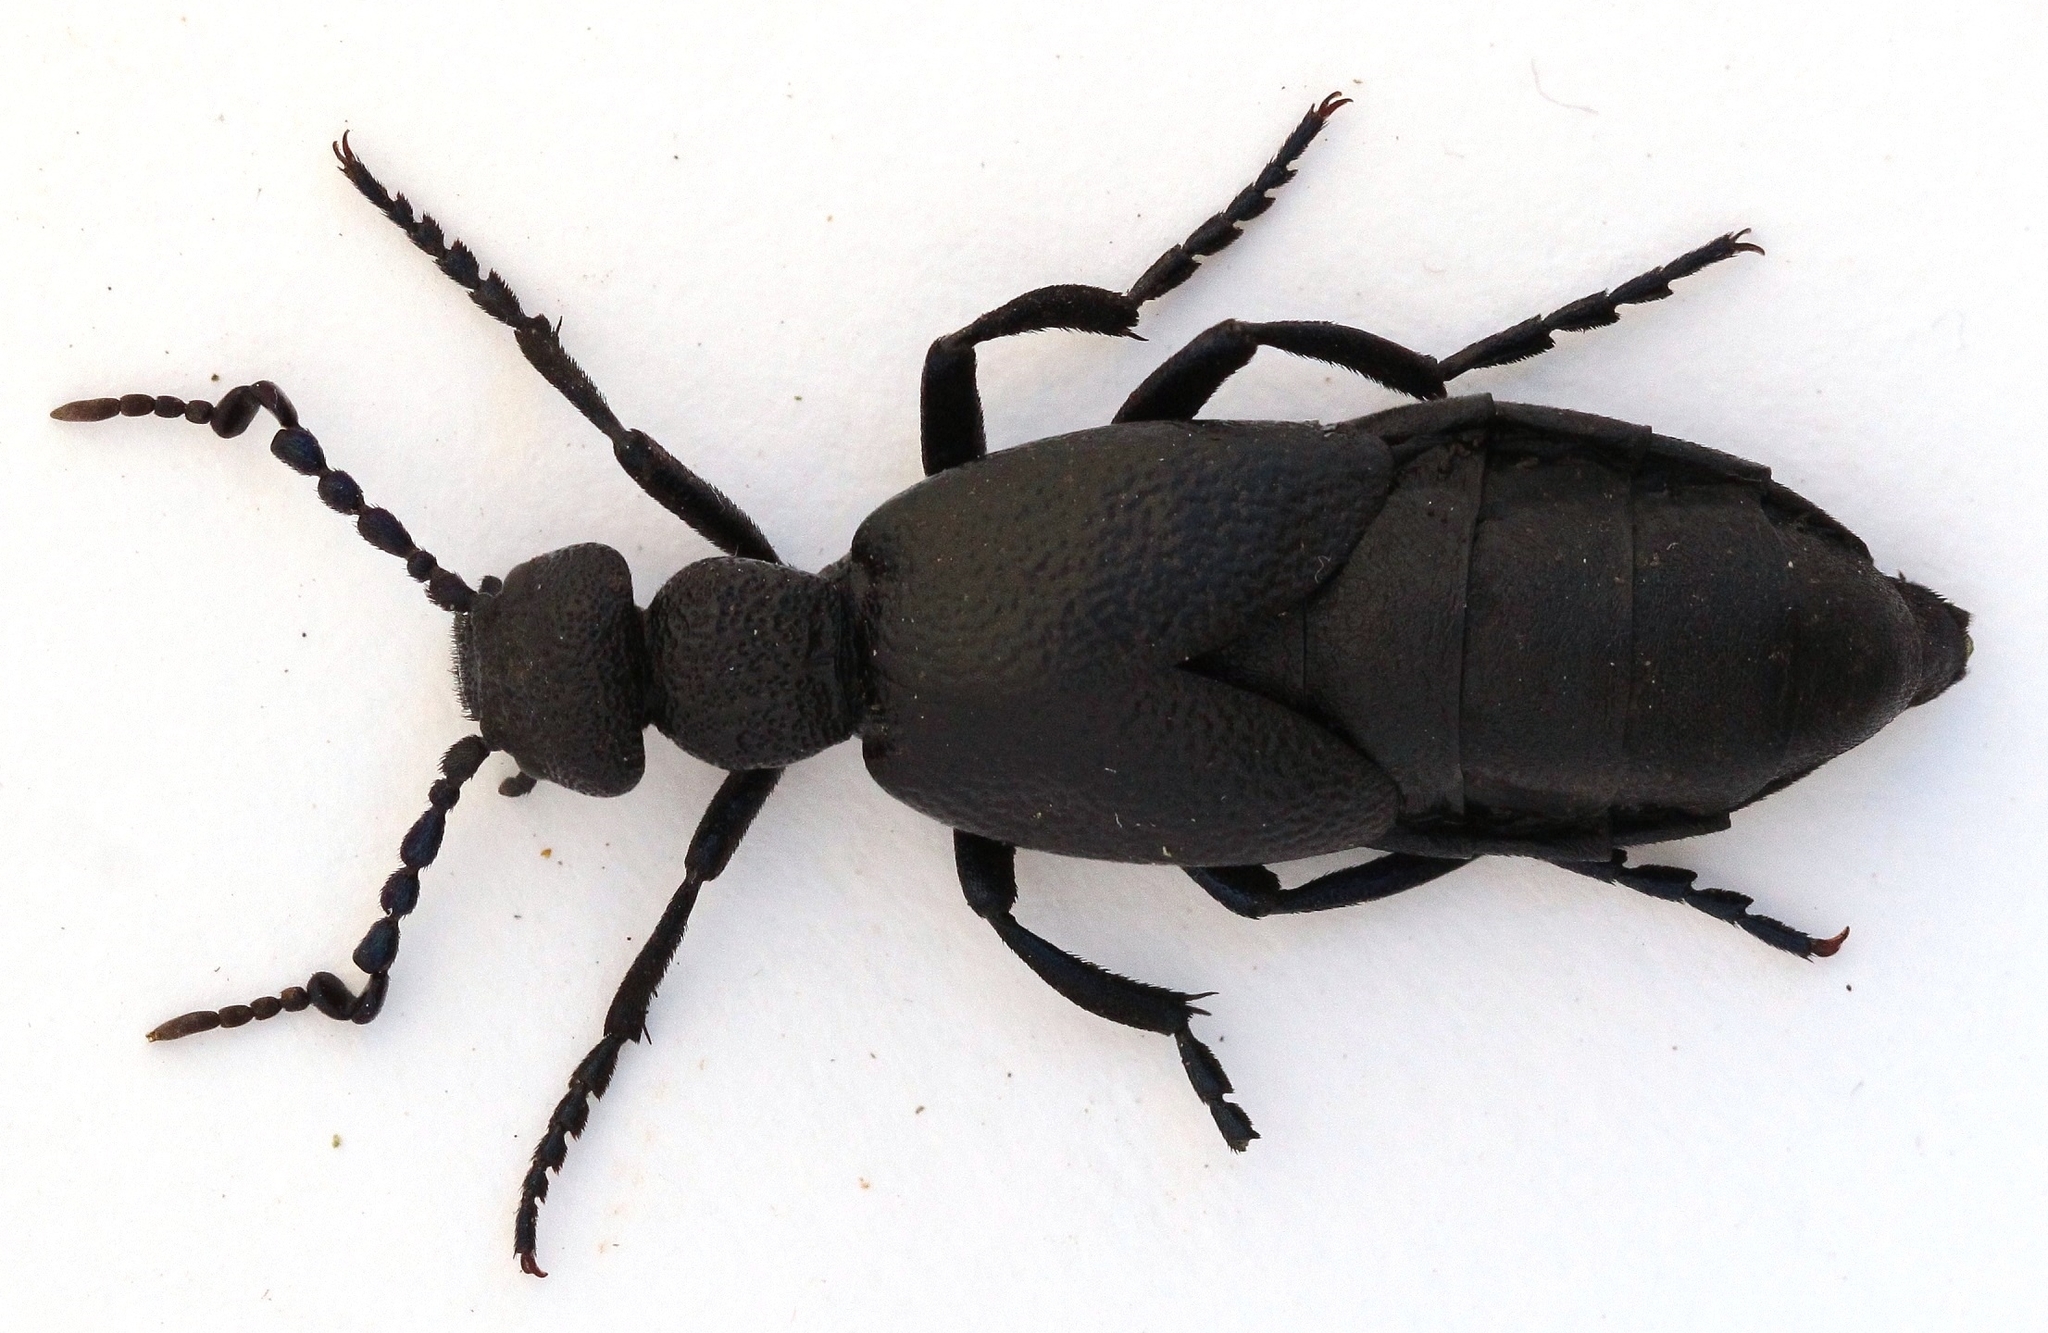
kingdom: Animalia
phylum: Arthropoda
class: Insecta
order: Coleoptera
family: Meloidae
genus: Meloe
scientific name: Meloe proscarabaeus
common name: Black oil-beetle
